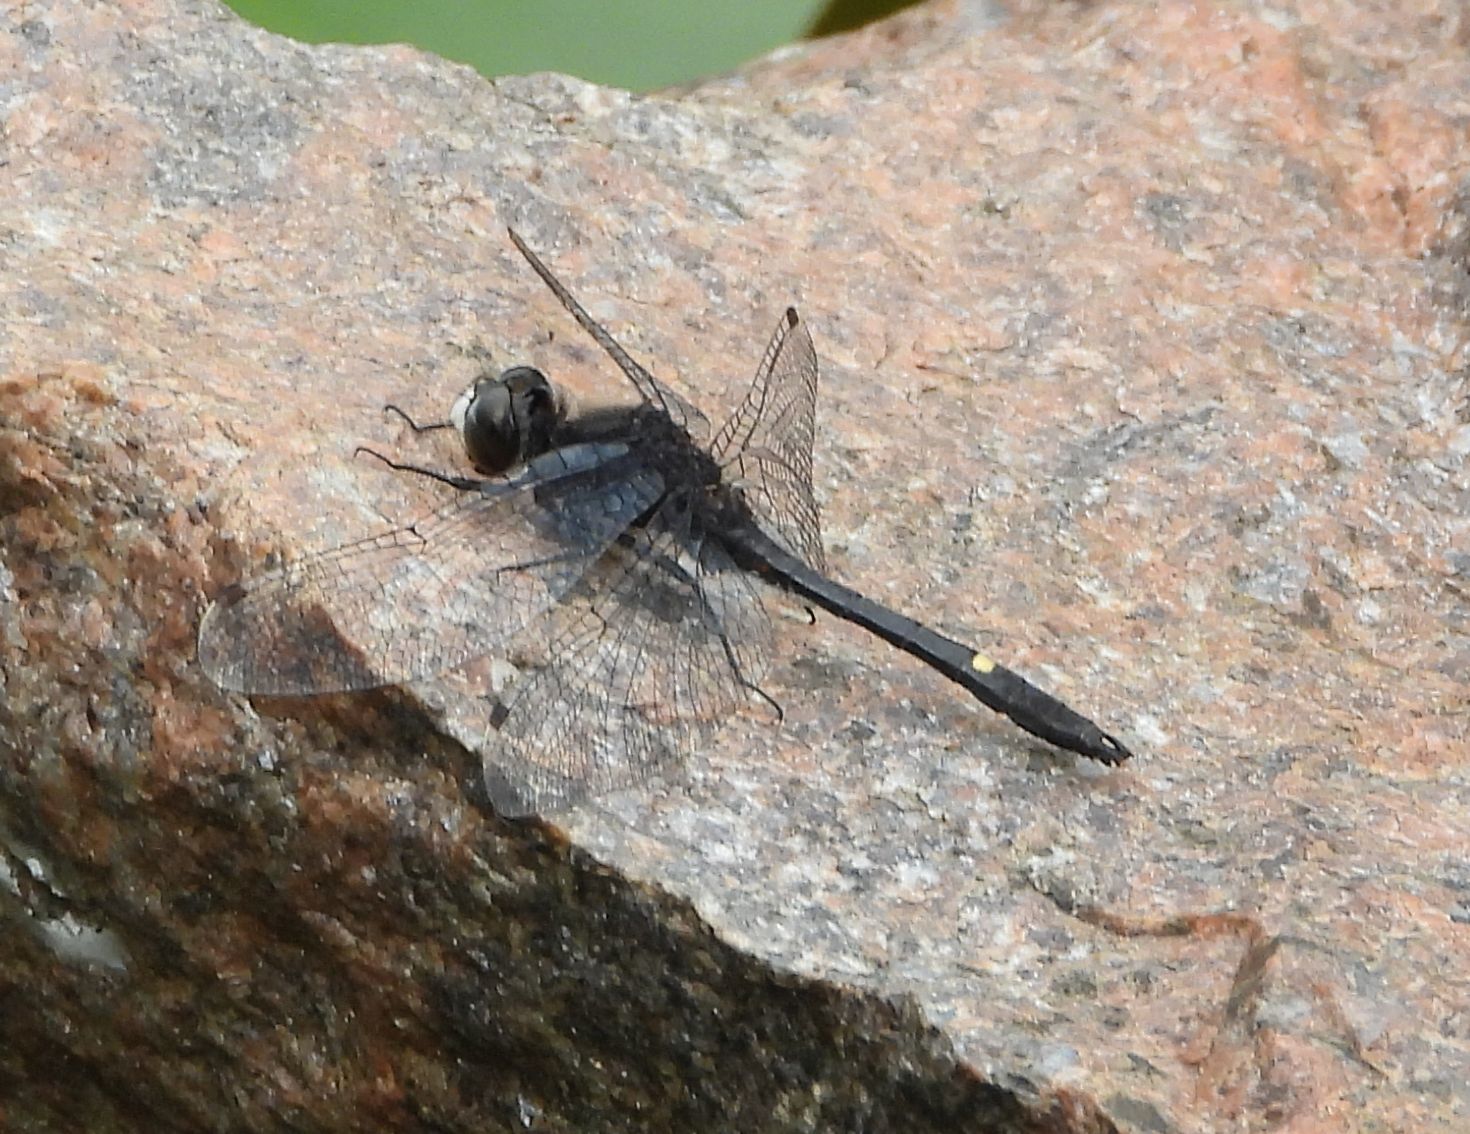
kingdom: Animalia
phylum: Arthropoda
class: Insecta
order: Odonata
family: Libellulidae
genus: Leucorrhinia
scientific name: Leucorrhinia intacta
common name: Dot-tailed whiteface
